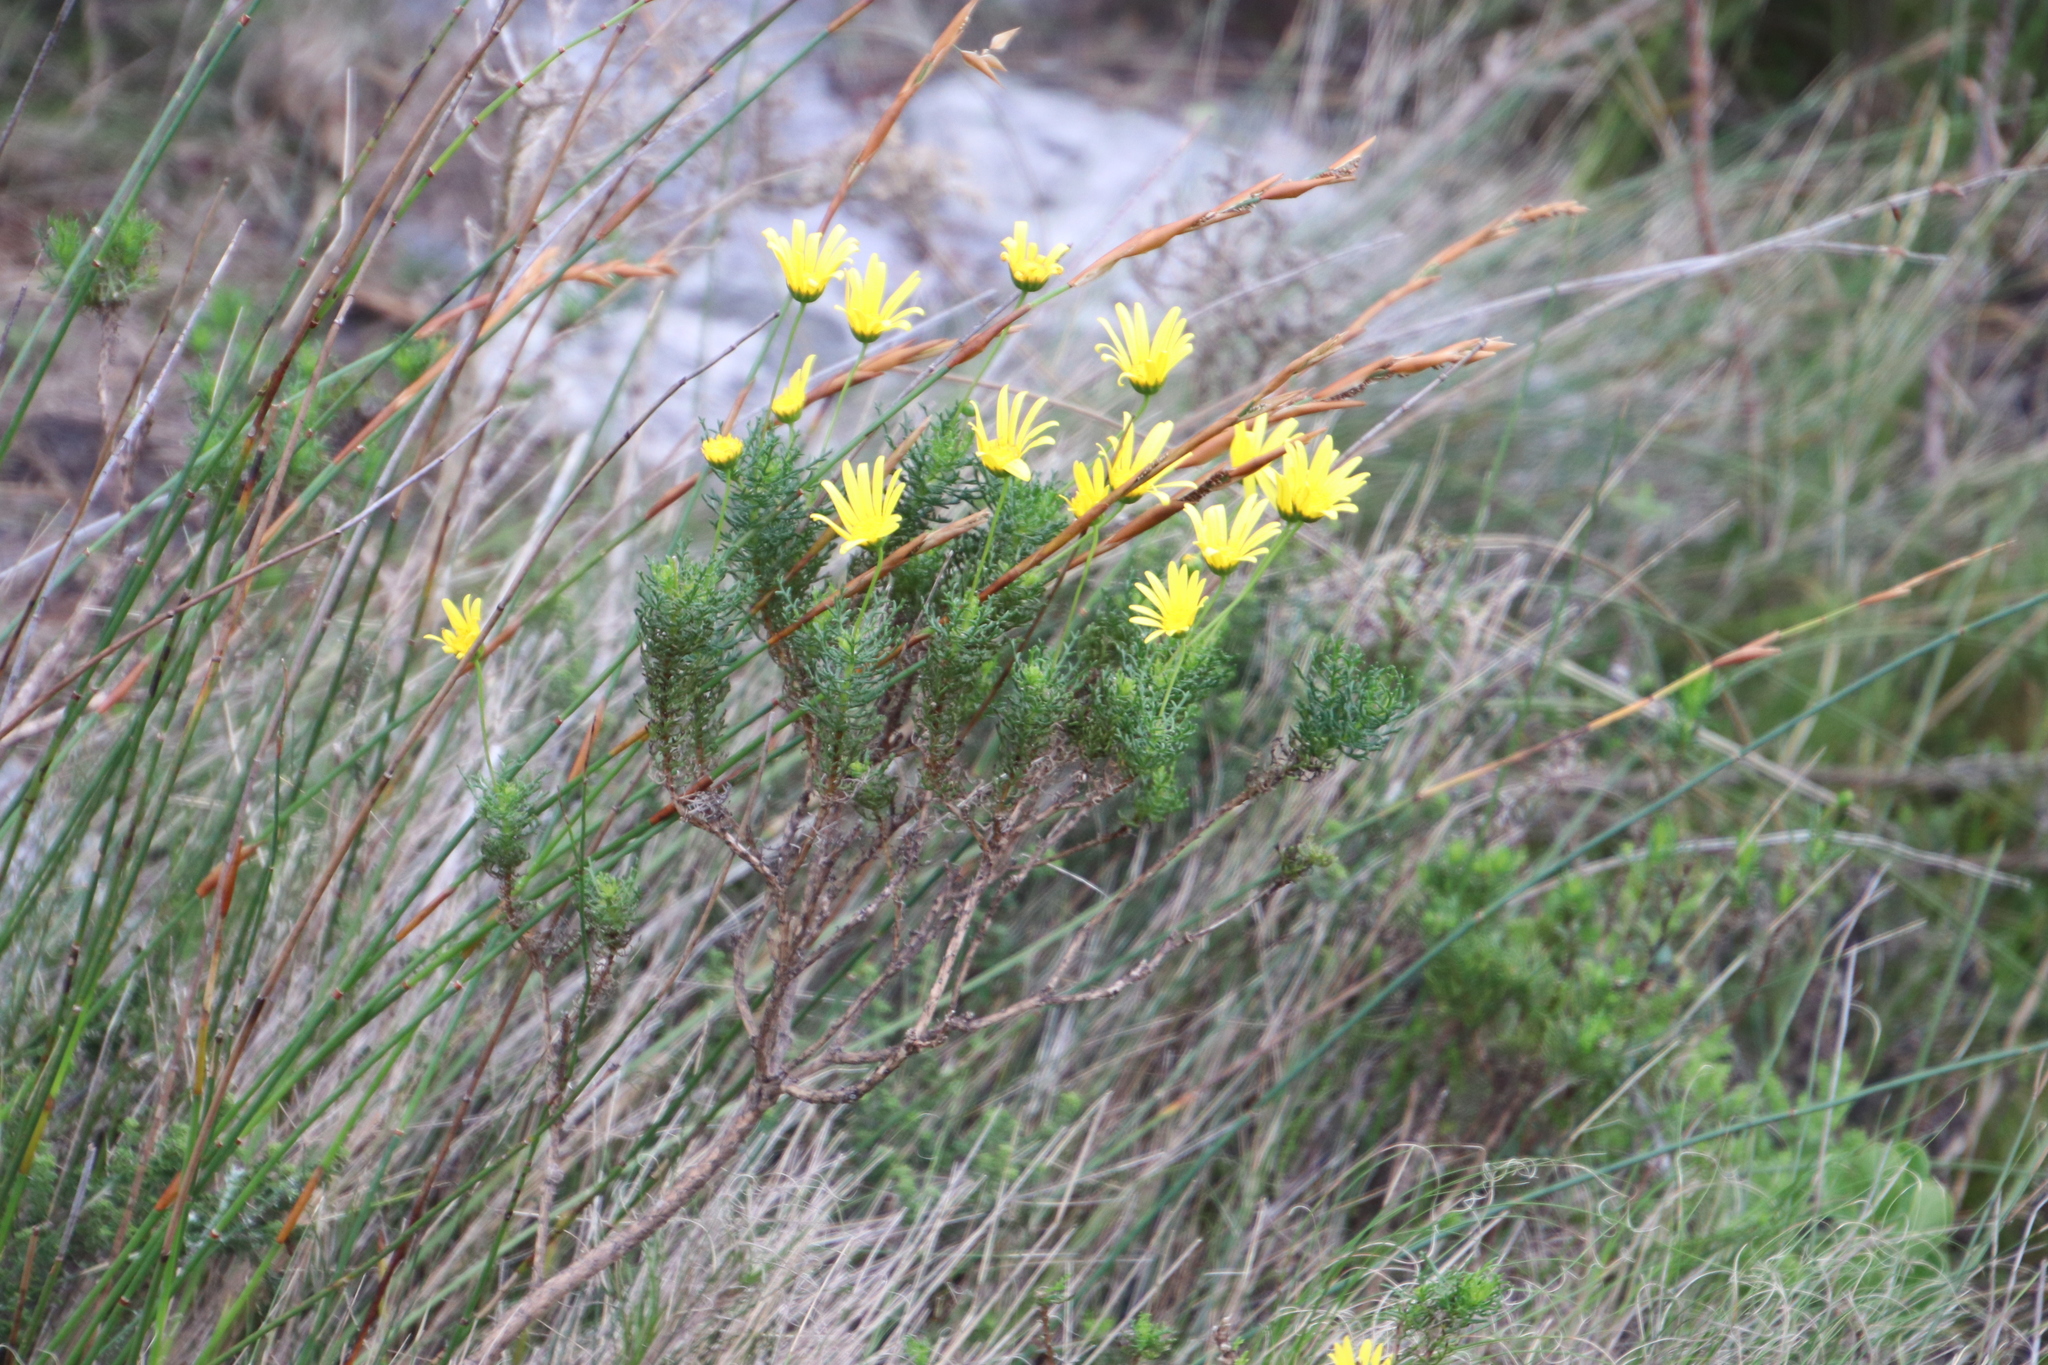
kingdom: Plantae
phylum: Tracheophyta
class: Magnoliopsida
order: Asterales
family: Asteraceae
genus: Euryops
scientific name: Euryops abrotanifolius
